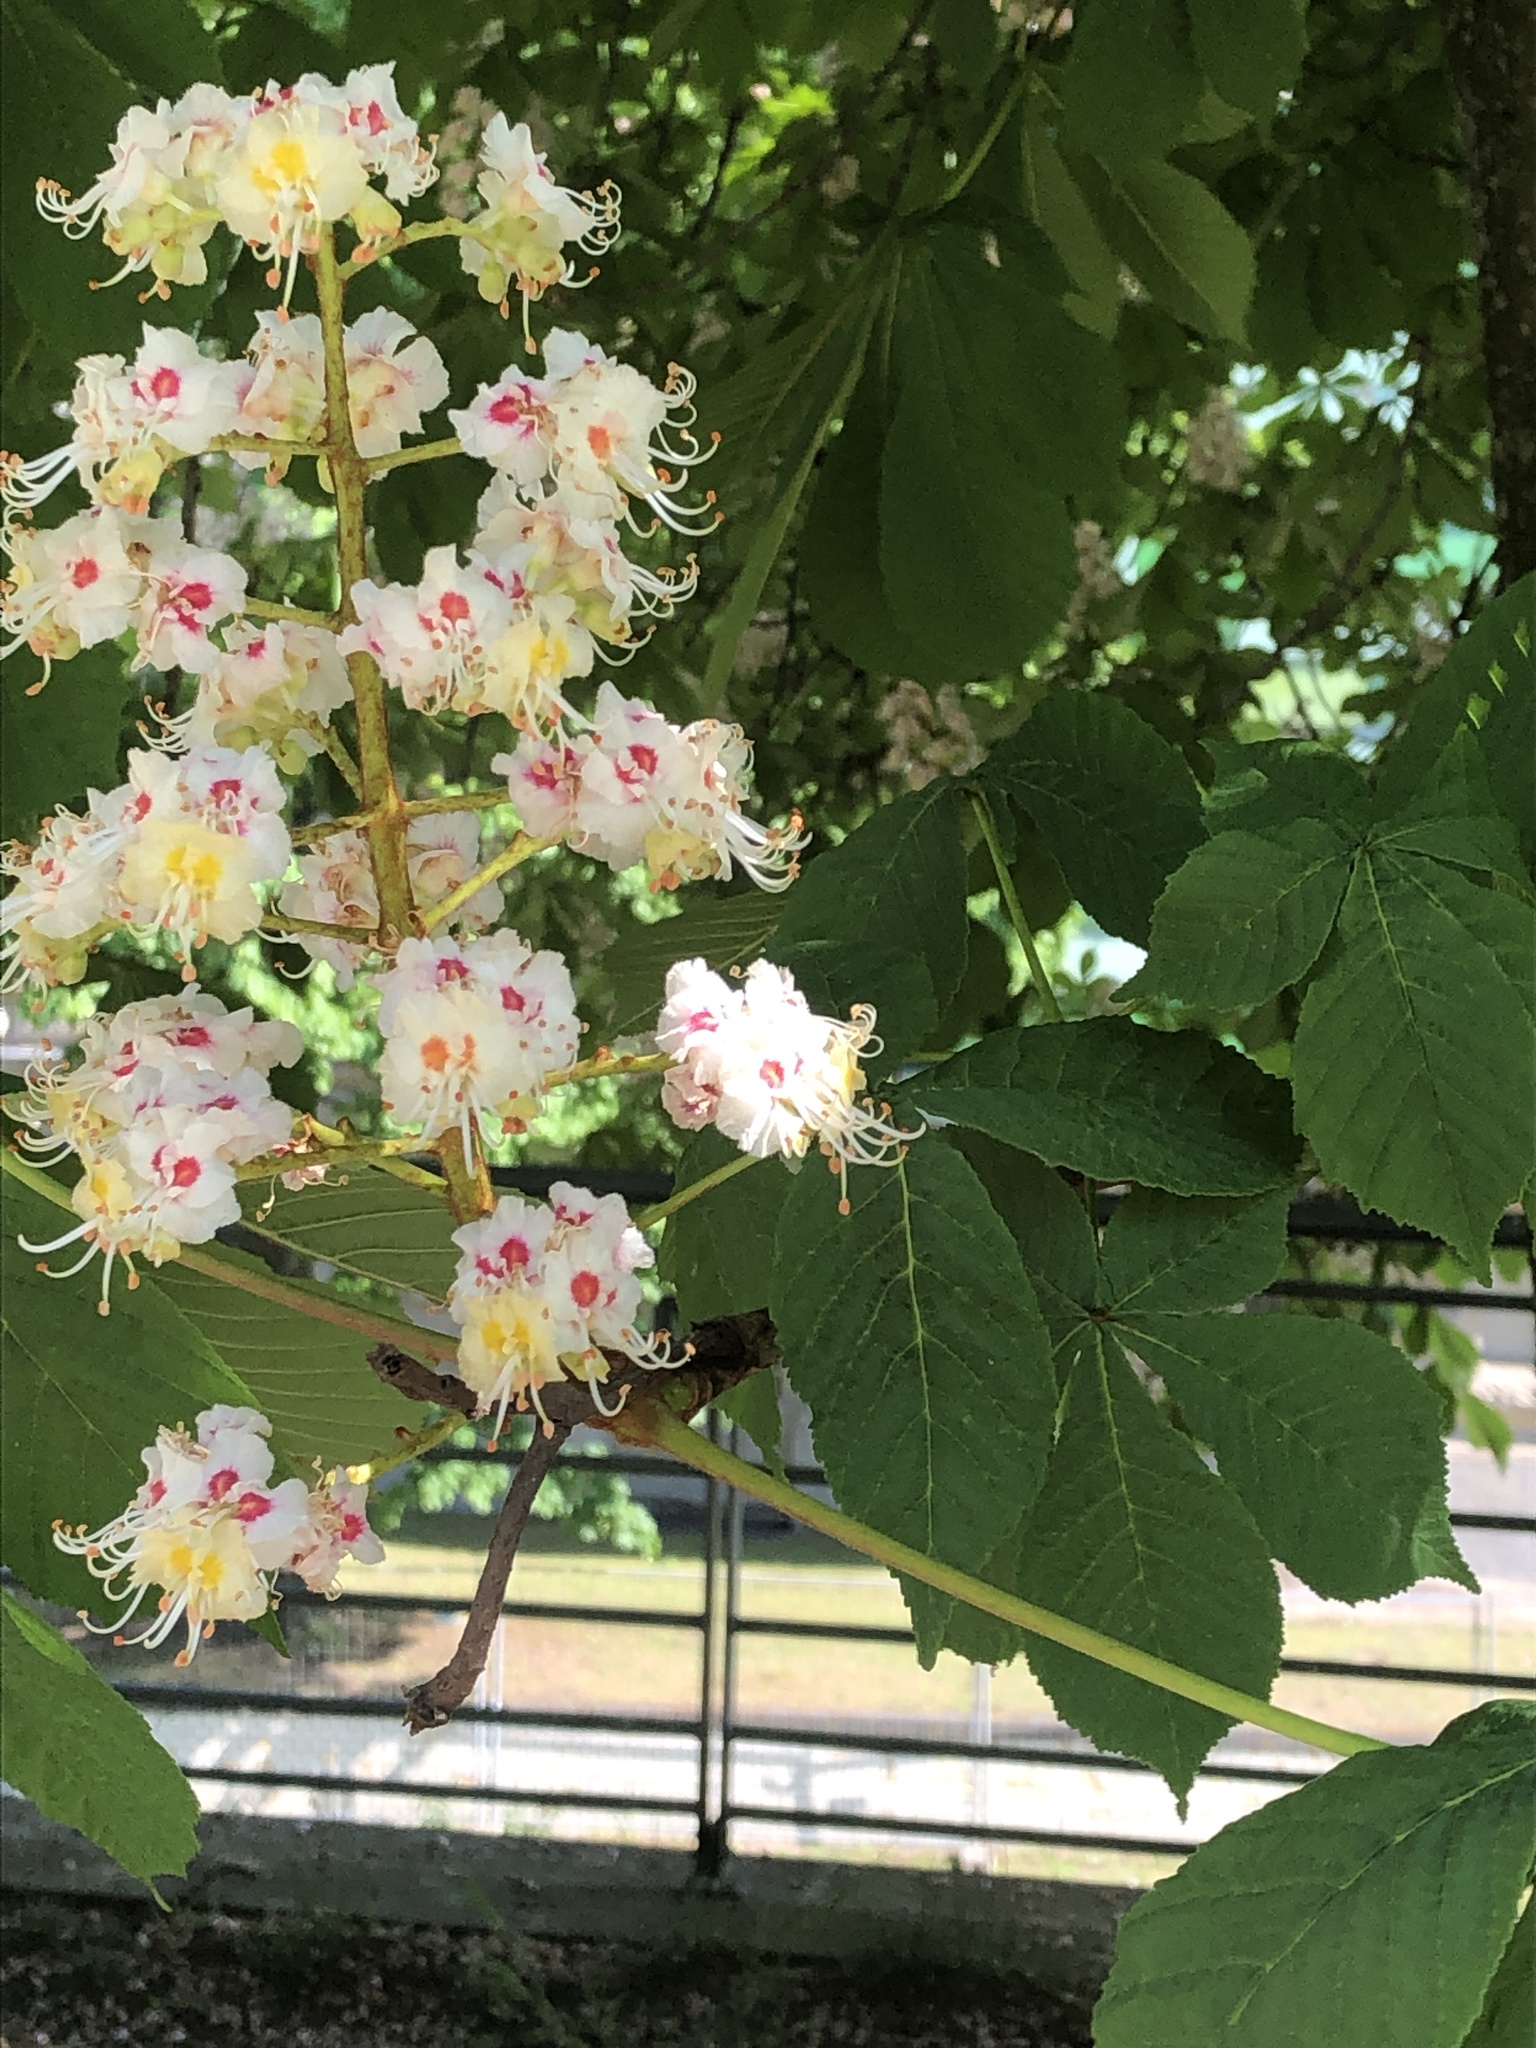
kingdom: Plantae
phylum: Tracheophyta
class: Magnoliopsida
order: Sapindales
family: Sapindaceae
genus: Aesculus
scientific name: Aesculus hippocastanum
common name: Horse-chestnut
